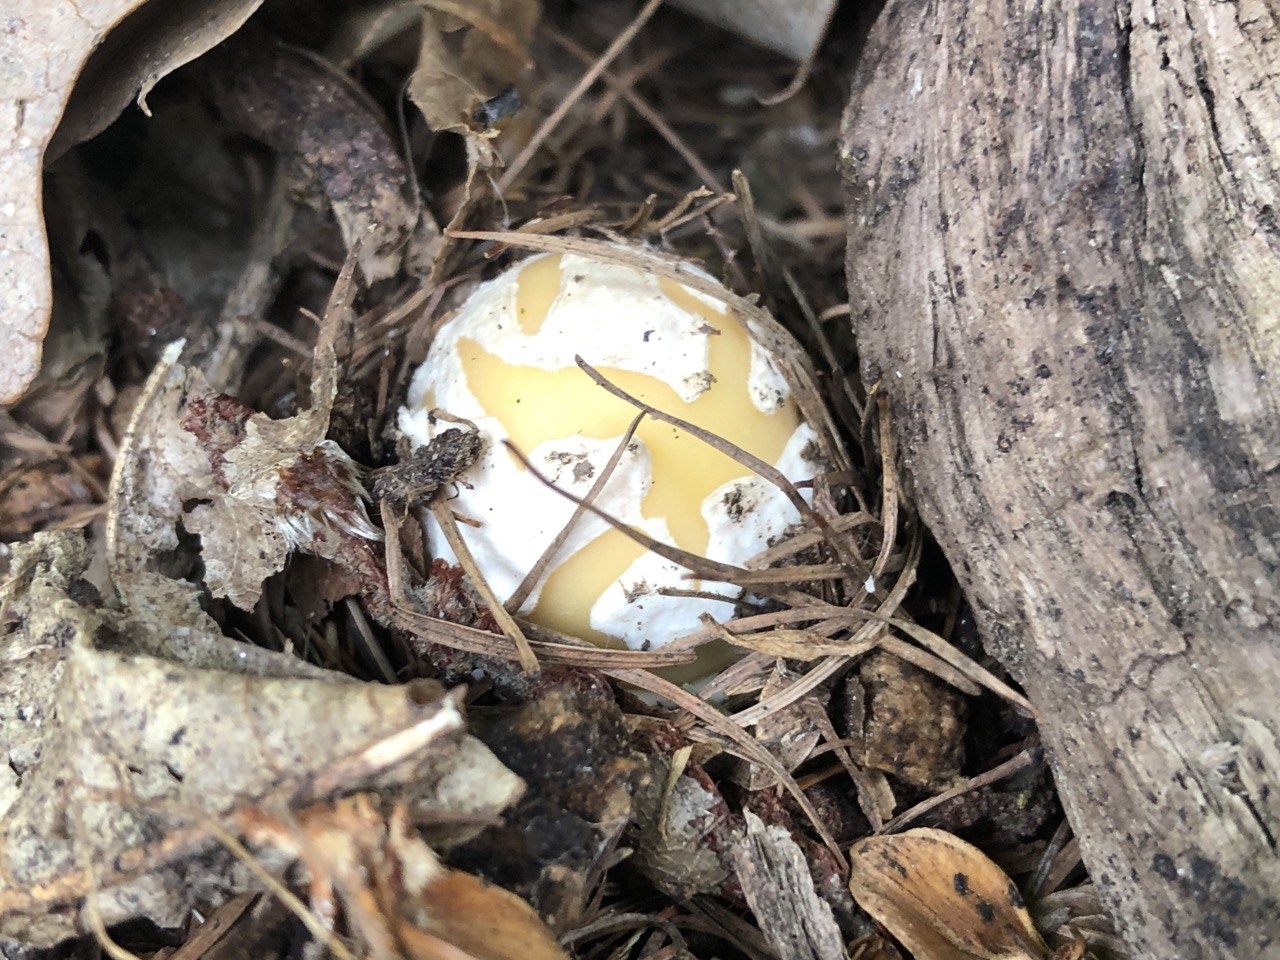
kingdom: Fungi
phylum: Basidiomycota
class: Agaricomycetes
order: Agaricales
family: Amanitaceae
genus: Amanita
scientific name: Amanita gemmata
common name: Jewelled amanita
